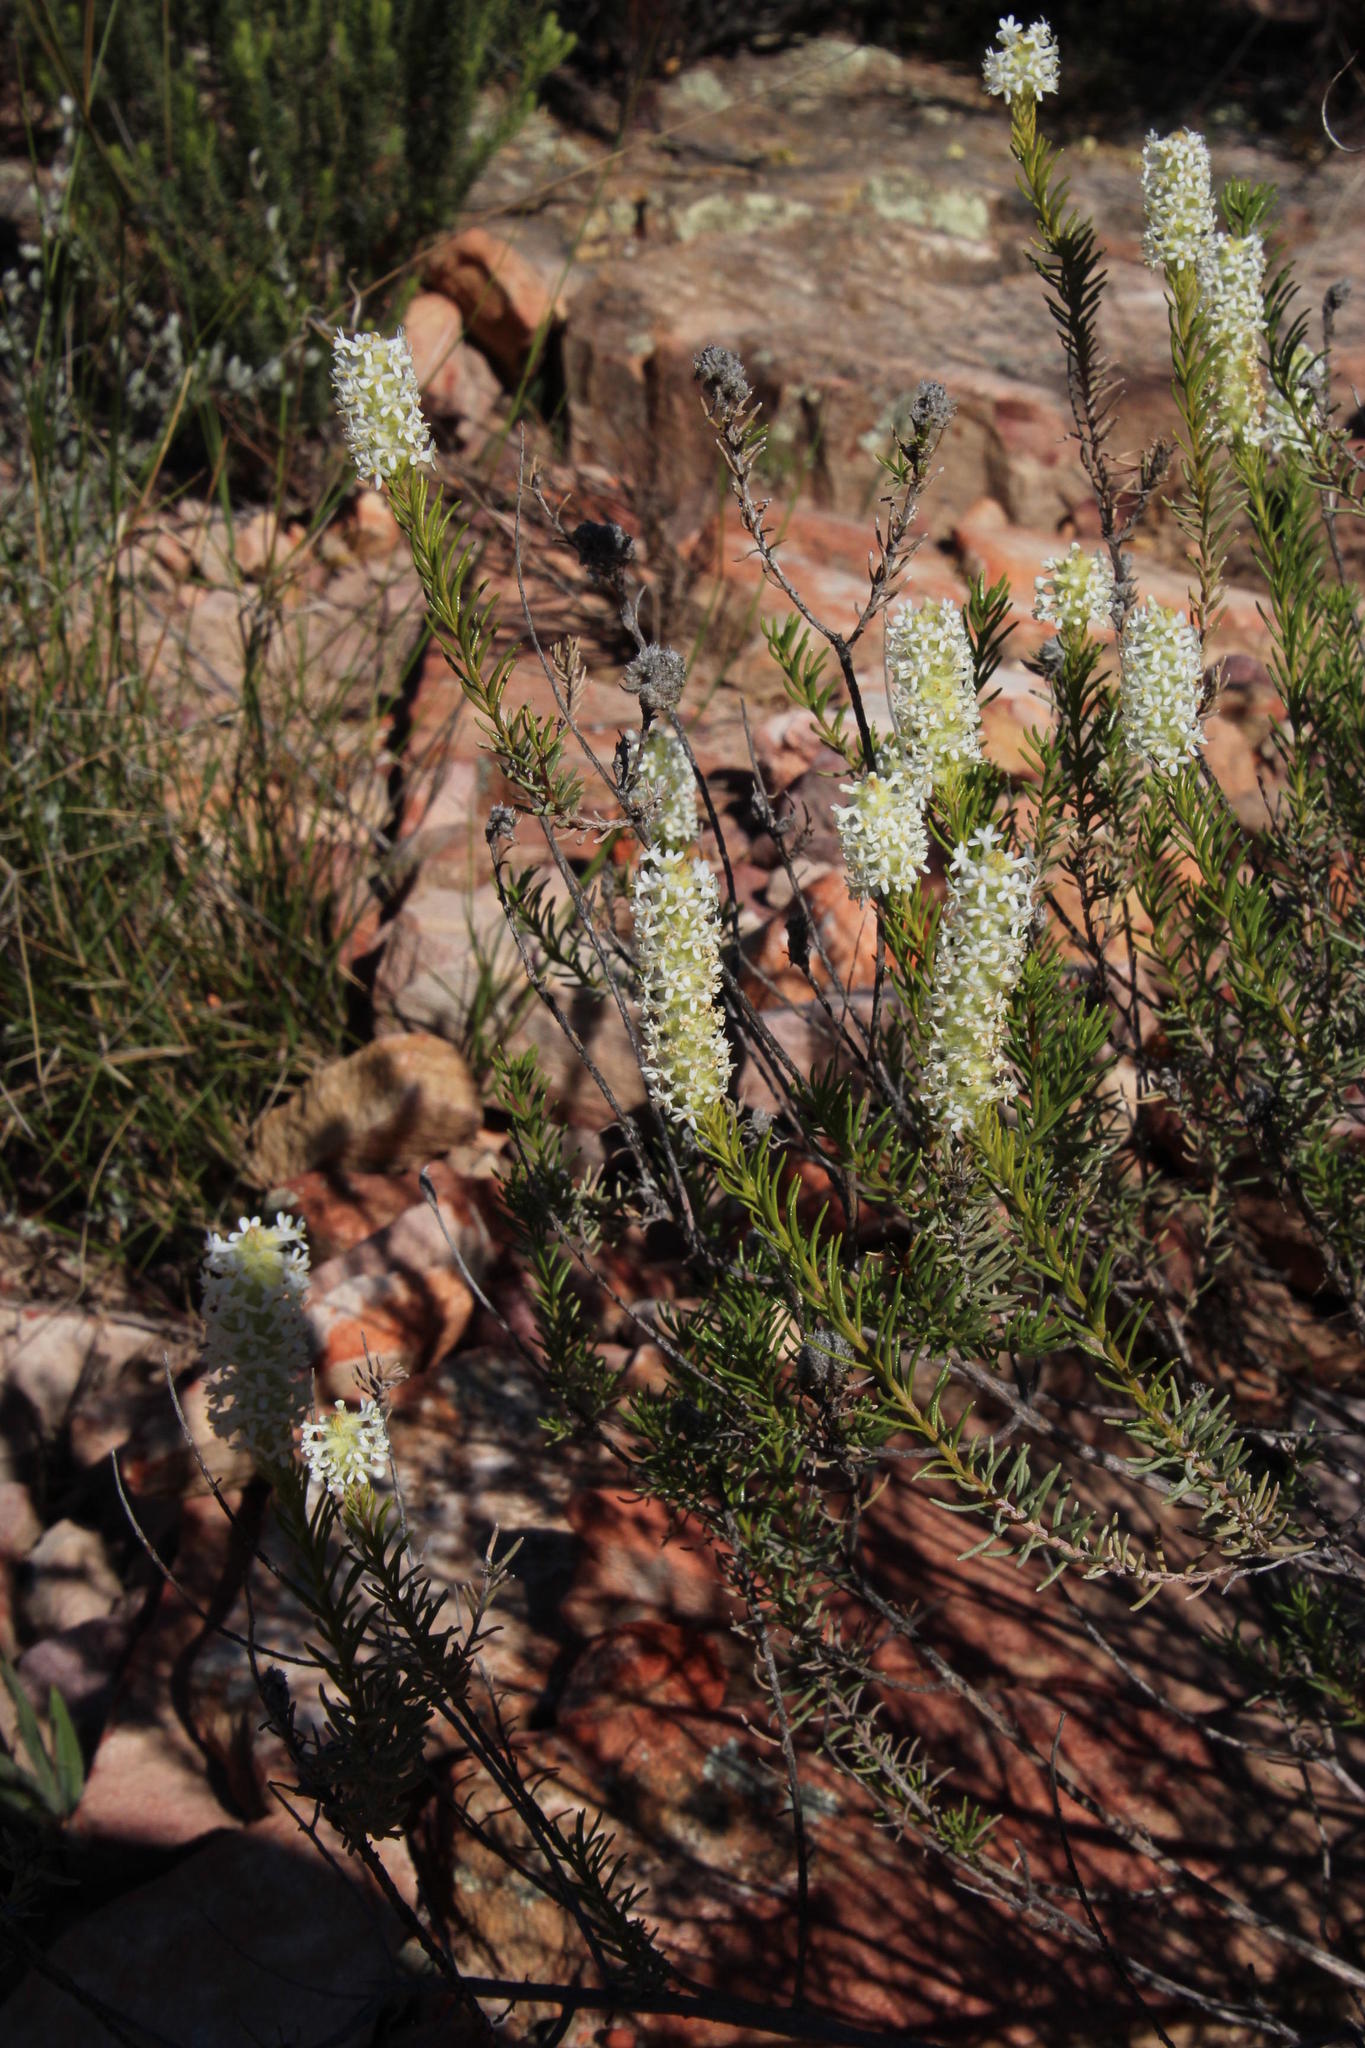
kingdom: Plantae
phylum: Tracheophyta
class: Magnoliopsida
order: Lamiales
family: Scrophulariaceae
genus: Selago
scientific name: Selago glutinosa
